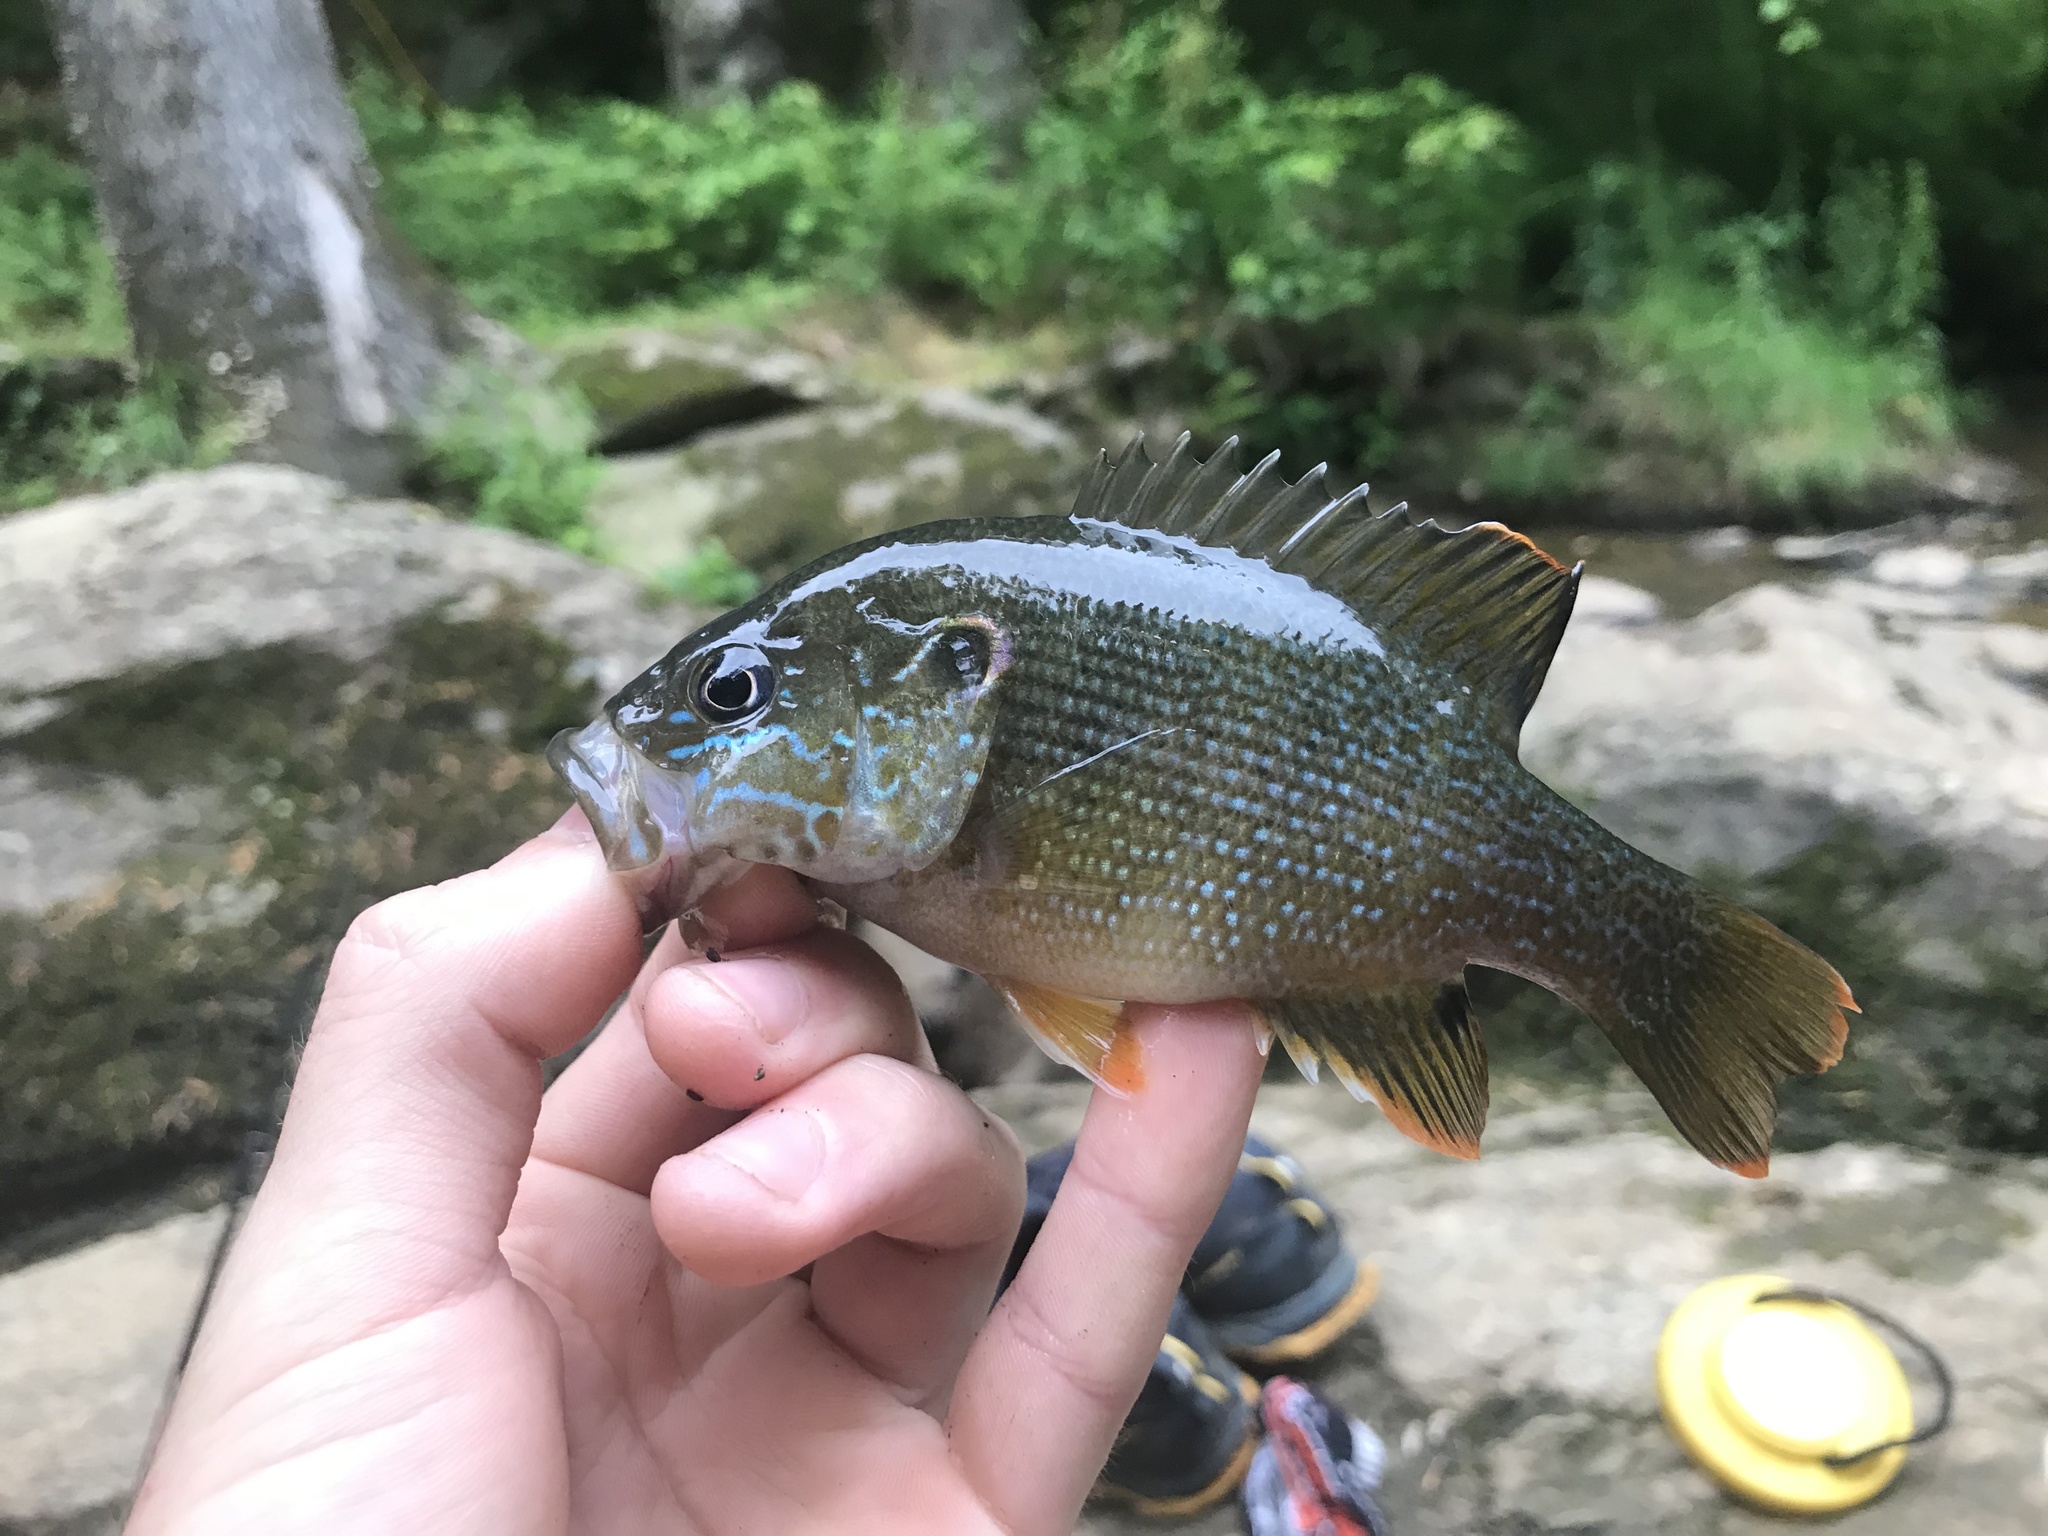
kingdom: Animalia
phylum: Chordata
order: Perciformes
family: Centrarchidae
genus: Lepomis
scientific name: Lepomis cyanellus
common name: Green sunfish
